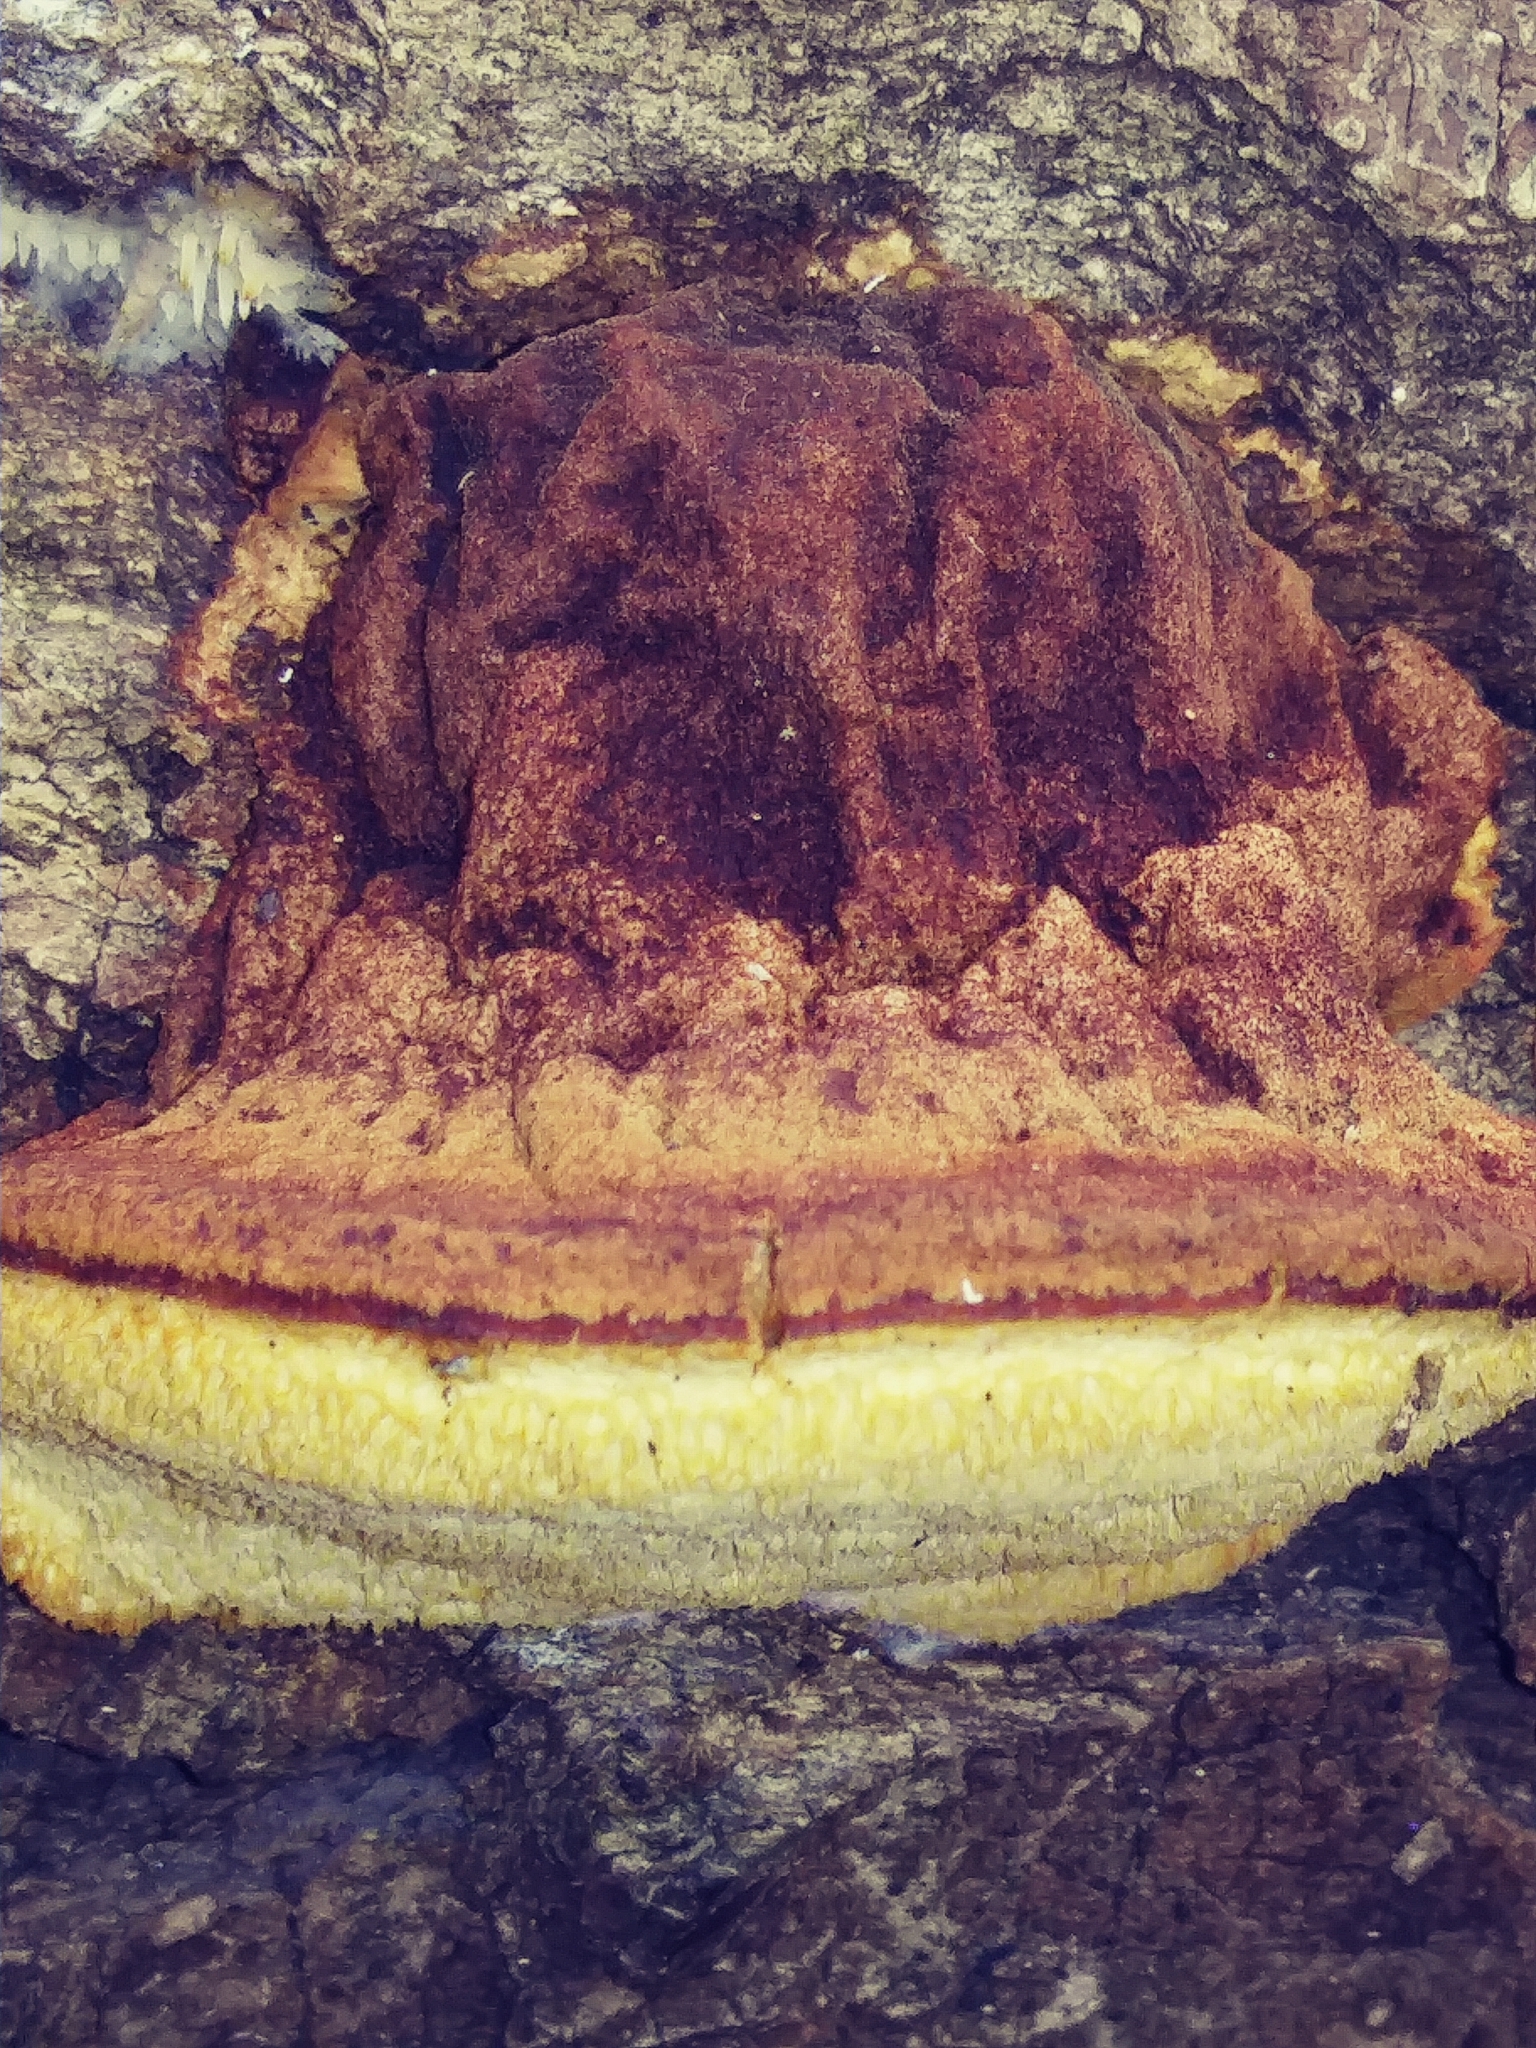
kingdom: Fungi
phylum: Basidiomycota
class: Agaricomycetes
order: Polyporales
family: Ischnodermataceae
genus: Ischnoderma
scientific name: Ischnoderma resinosum
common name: Resinous polypore
